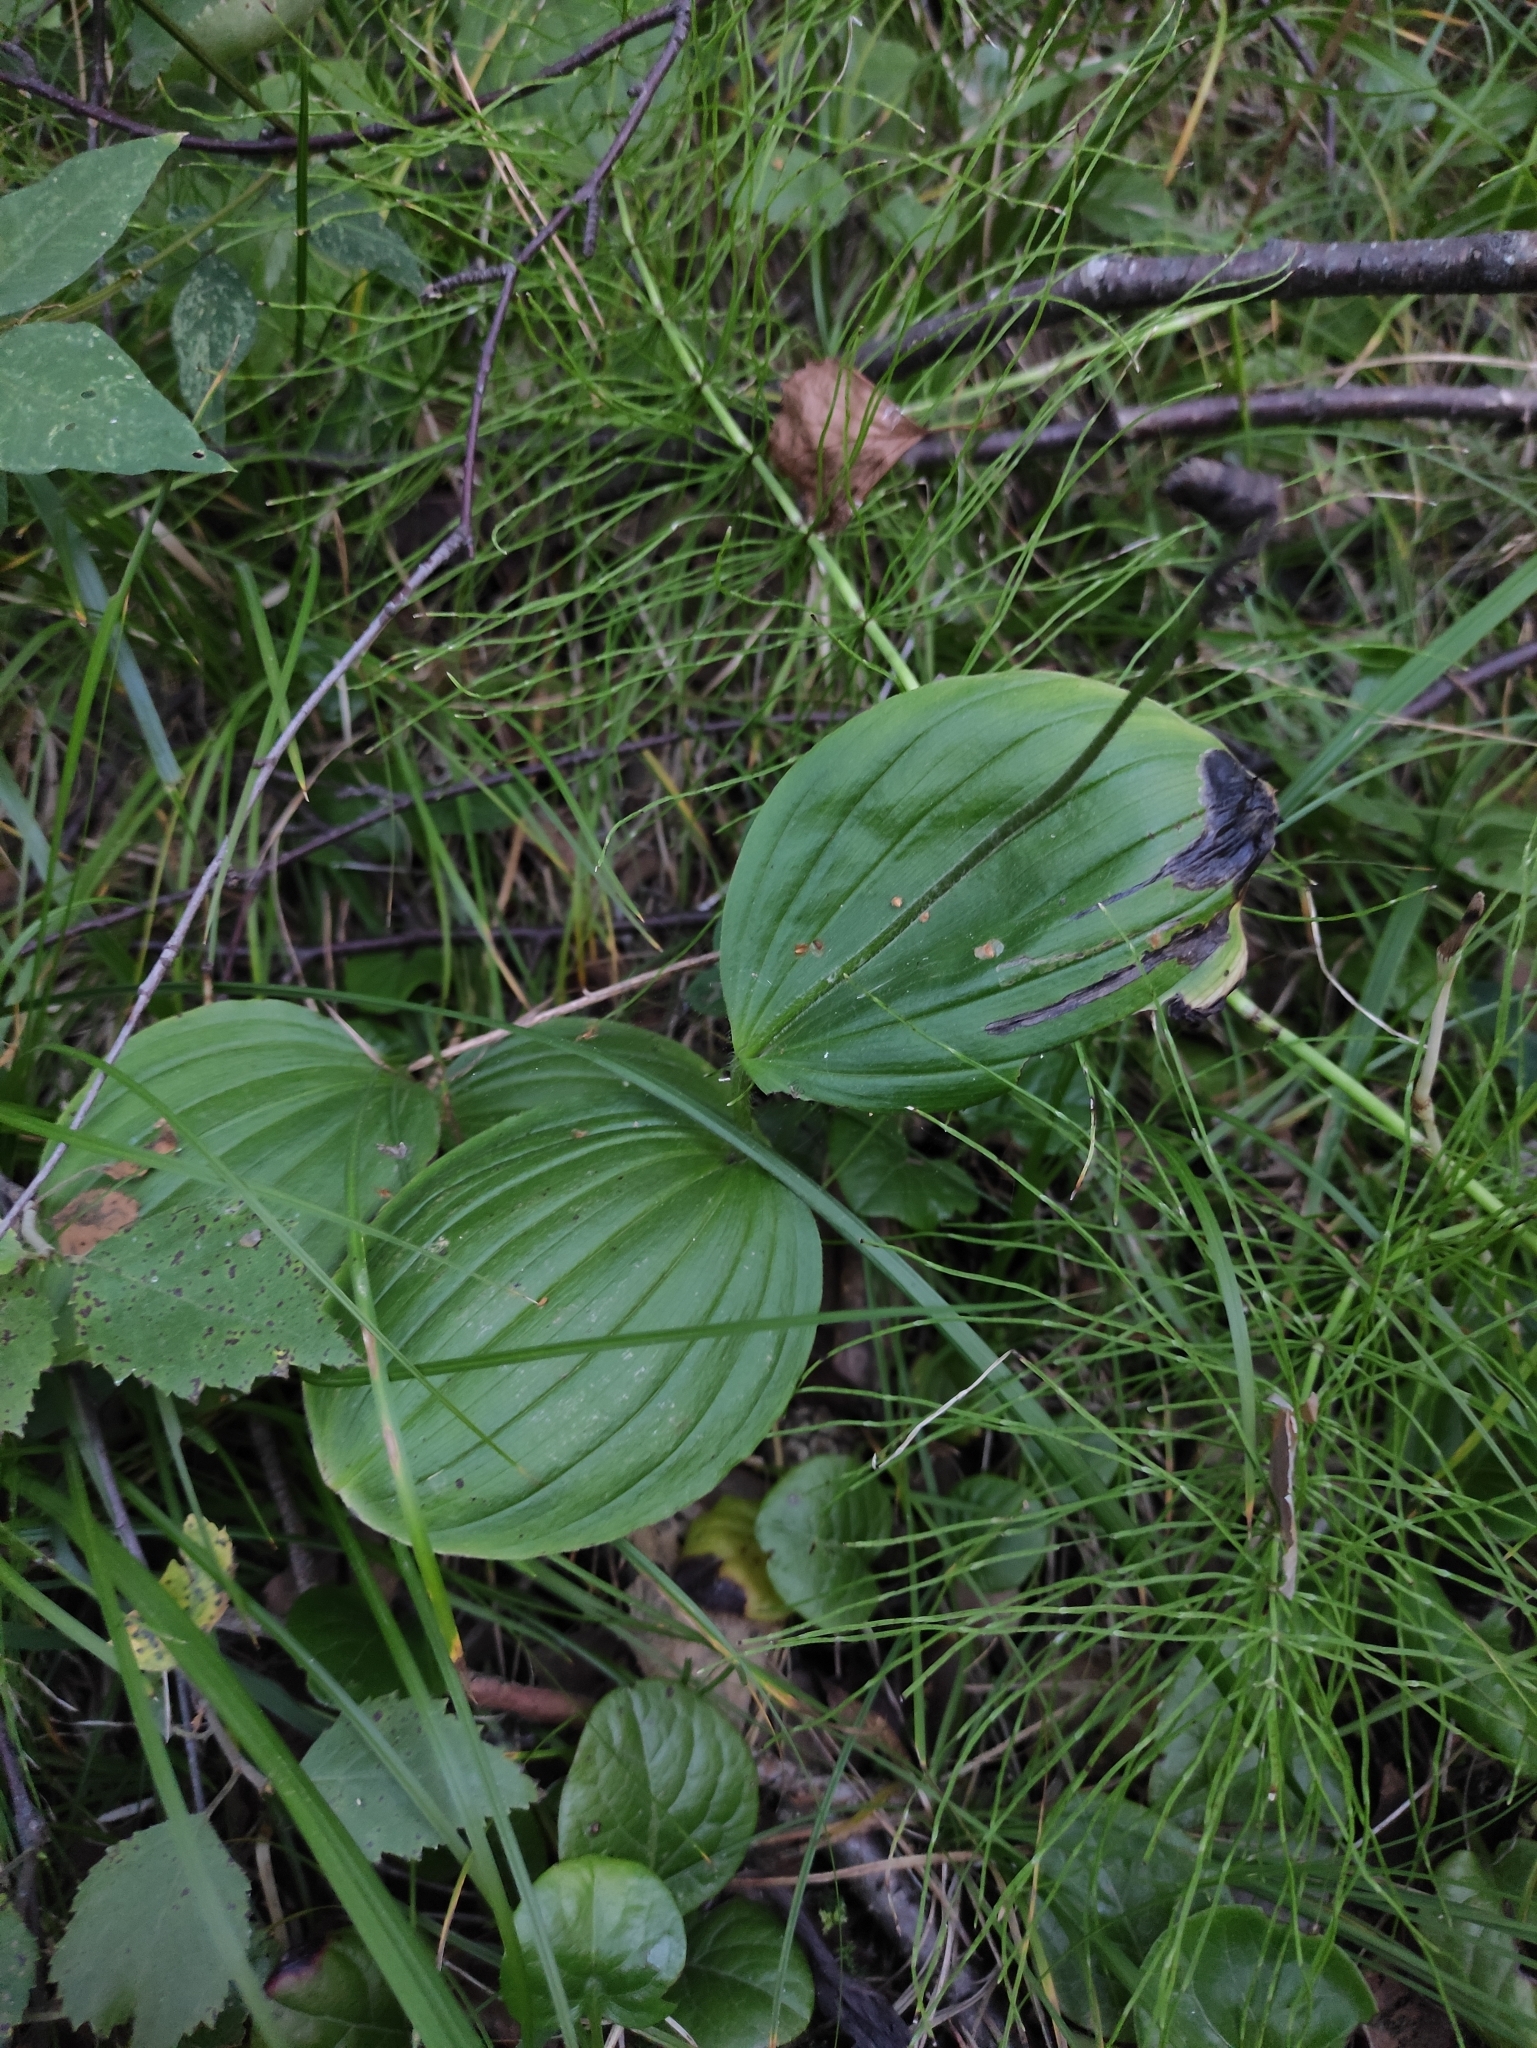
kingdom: Plantae
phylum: Tracheophyta
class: Liliopsida
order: Asparagales
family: Orchidaceae
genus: Cypripedium
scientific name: Cypripedium guttatum
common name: Pink lady slipper
